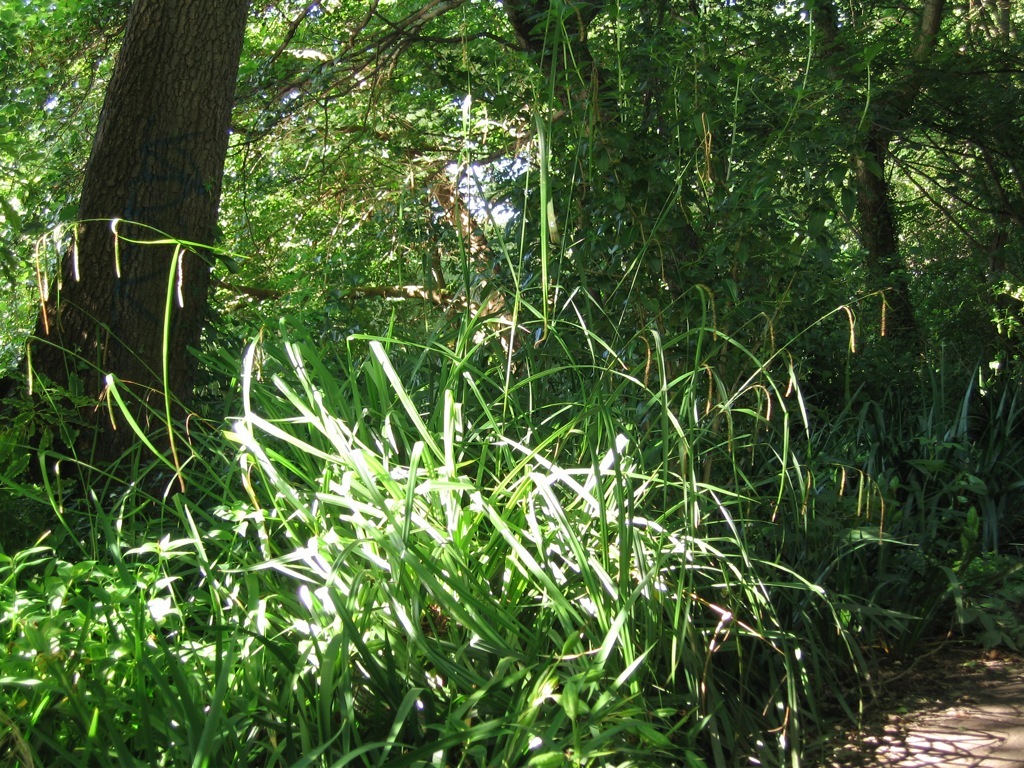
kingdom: Plantae
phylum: Tracheophyta
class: Liliopsida
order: Poales
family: Cyperaceae
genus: Carex
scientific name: Carex pendula
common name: Pendulous sedge
